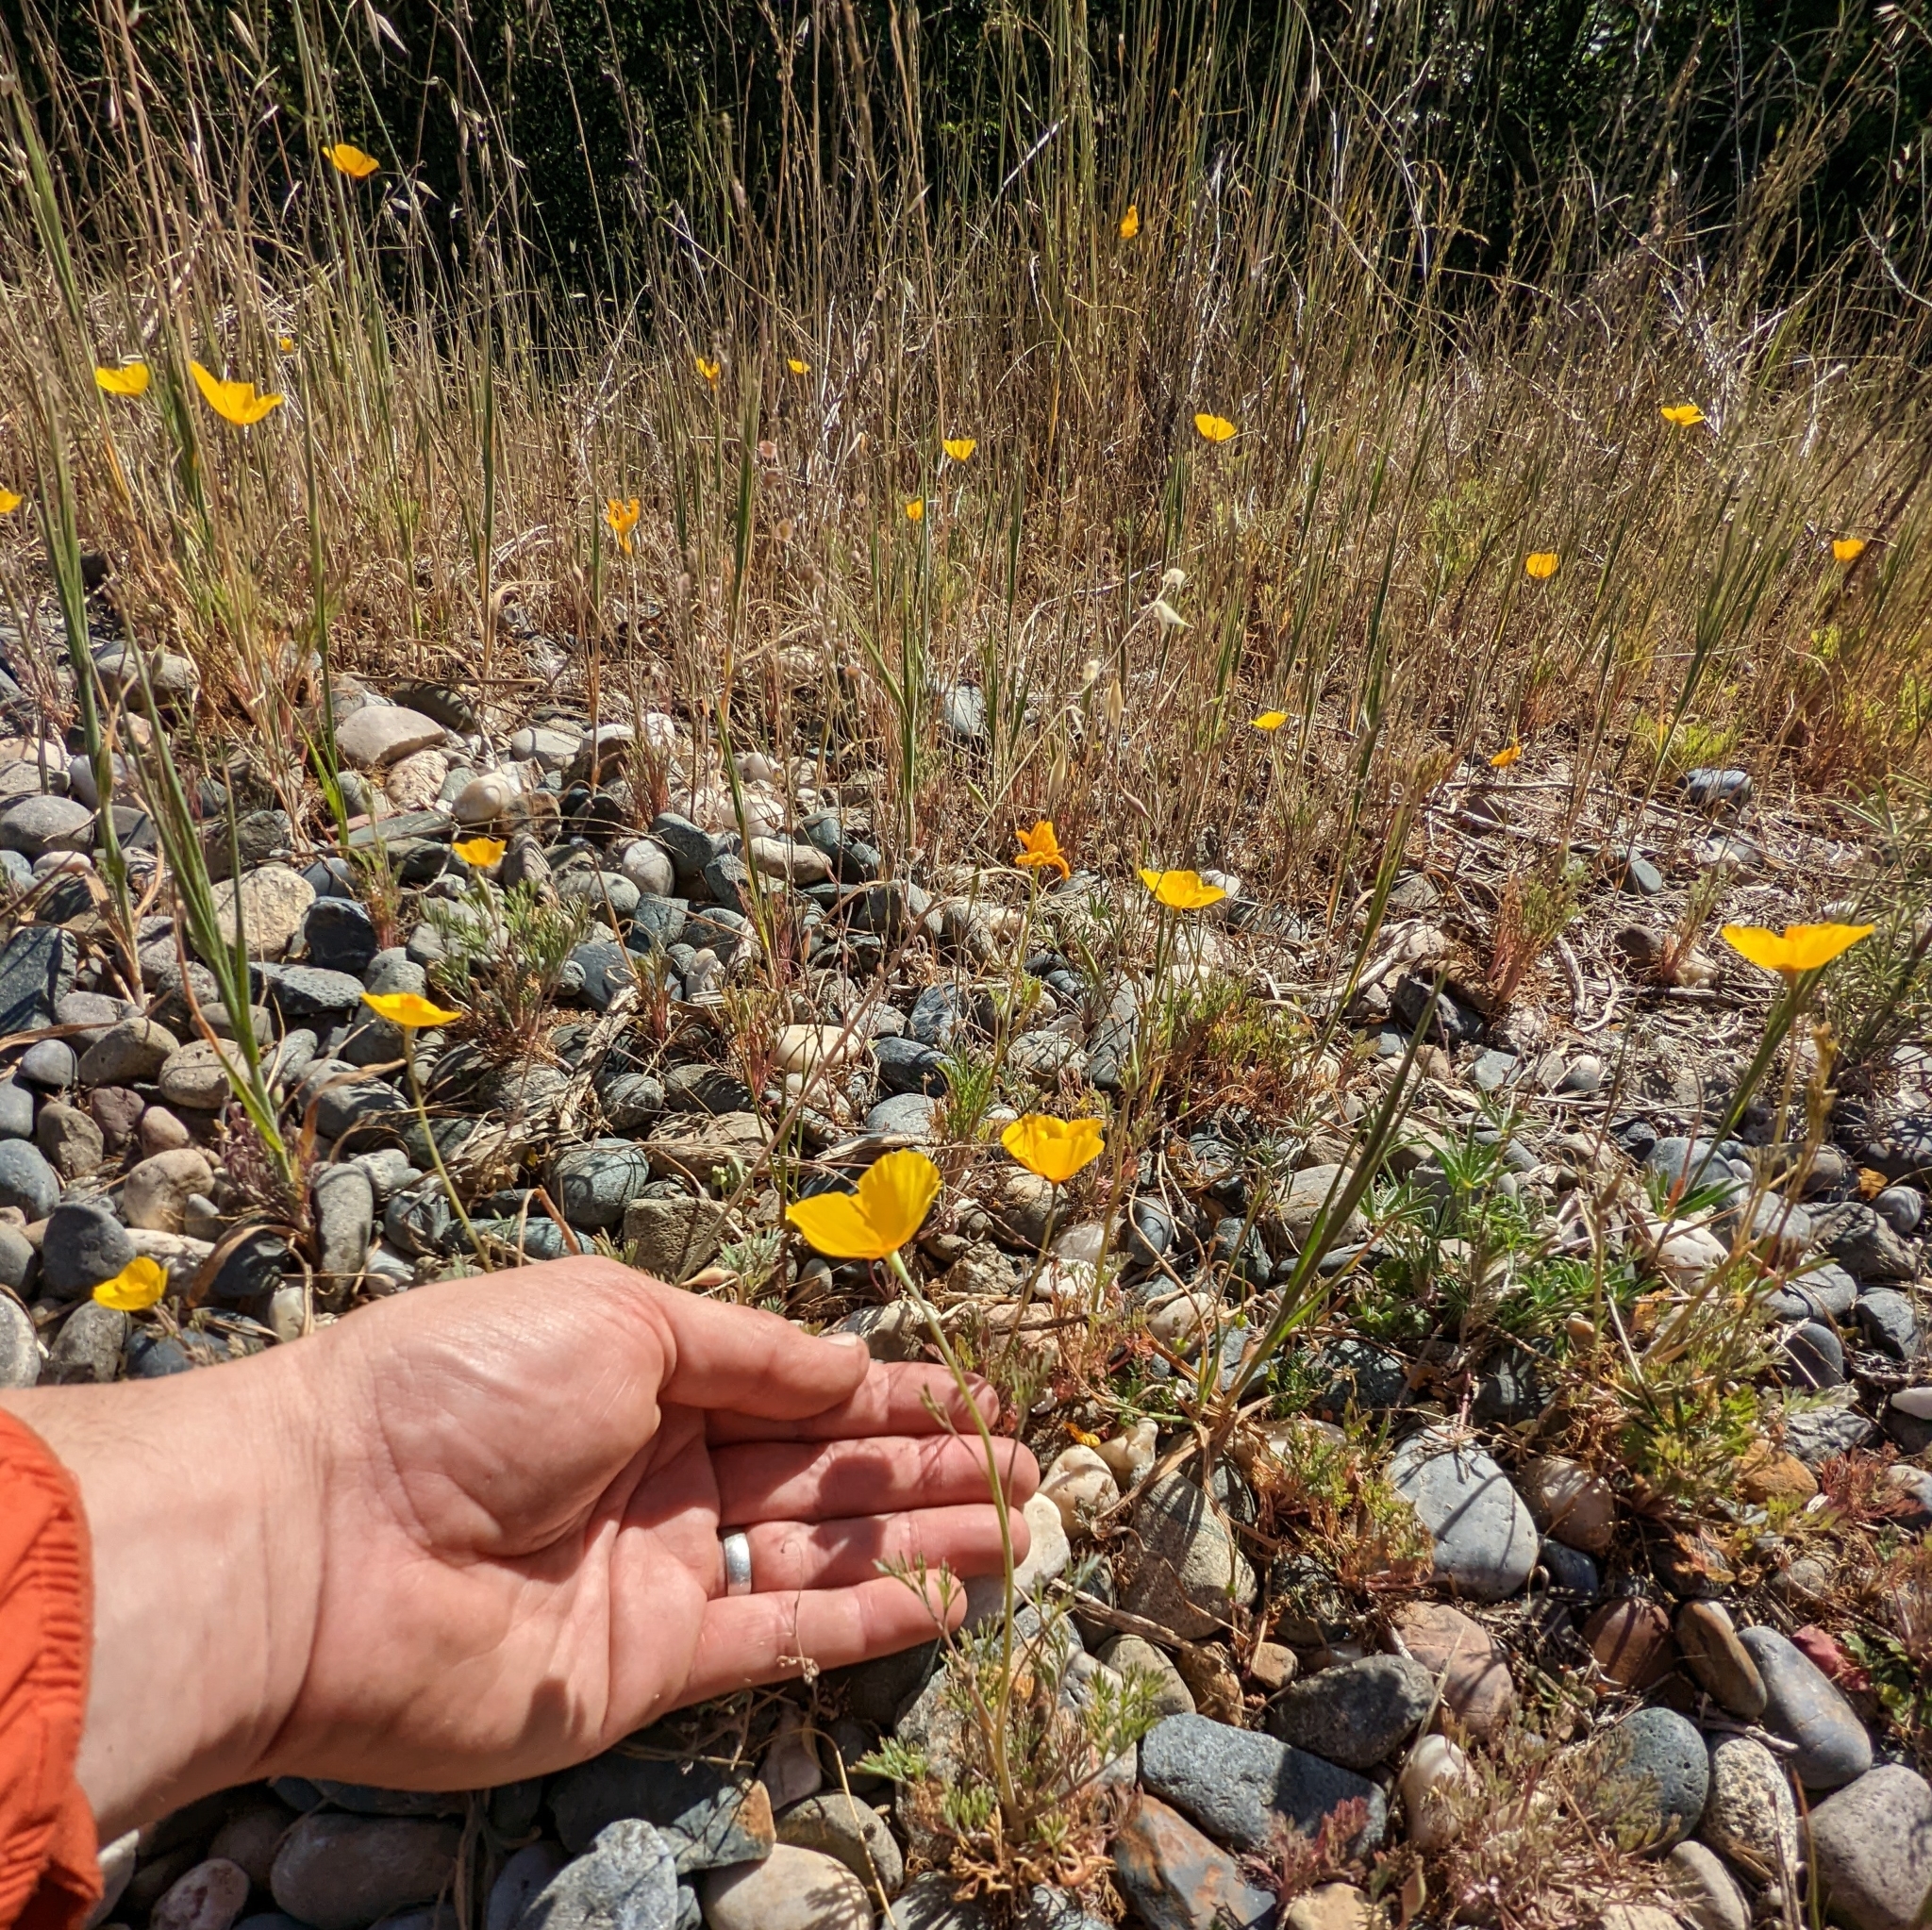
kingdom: Plantae
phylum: Tracheophyta
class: Magnoliopsida
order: Ranunculales
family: Papaveraceae
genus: Eschscholzia
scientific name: Eschscholzia caespitosa
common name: Tufted california-poppy
